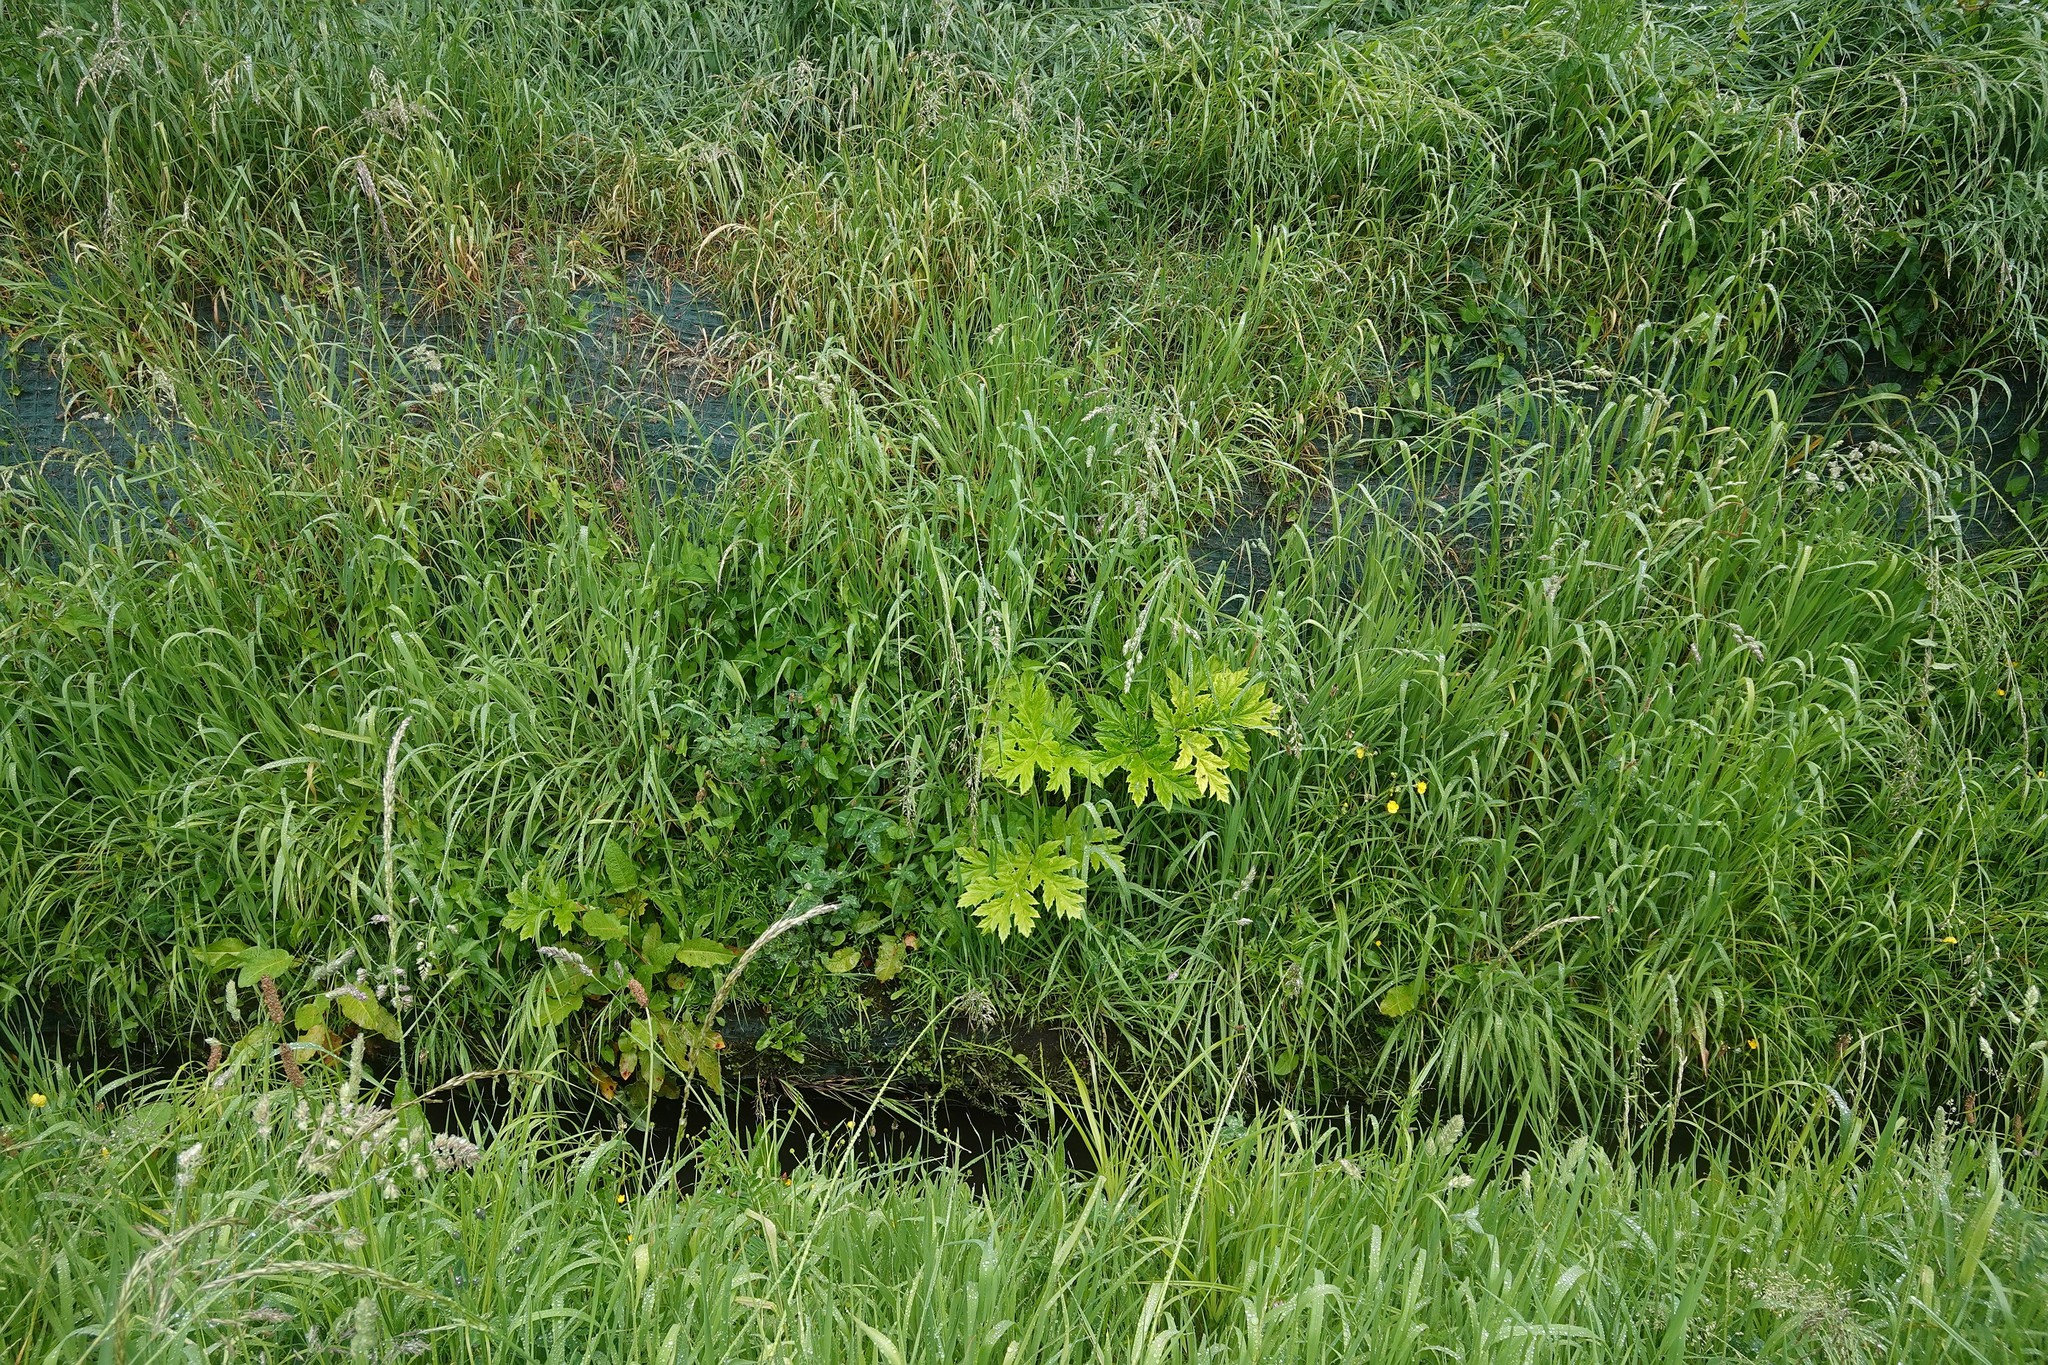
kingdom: Plantae
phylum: Tracheophyta
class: Magnoliopsida
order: Apiales
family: Apiaceae
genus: Heracleum
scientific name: Heracleum mantegazzianum
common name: Giant hogweed
